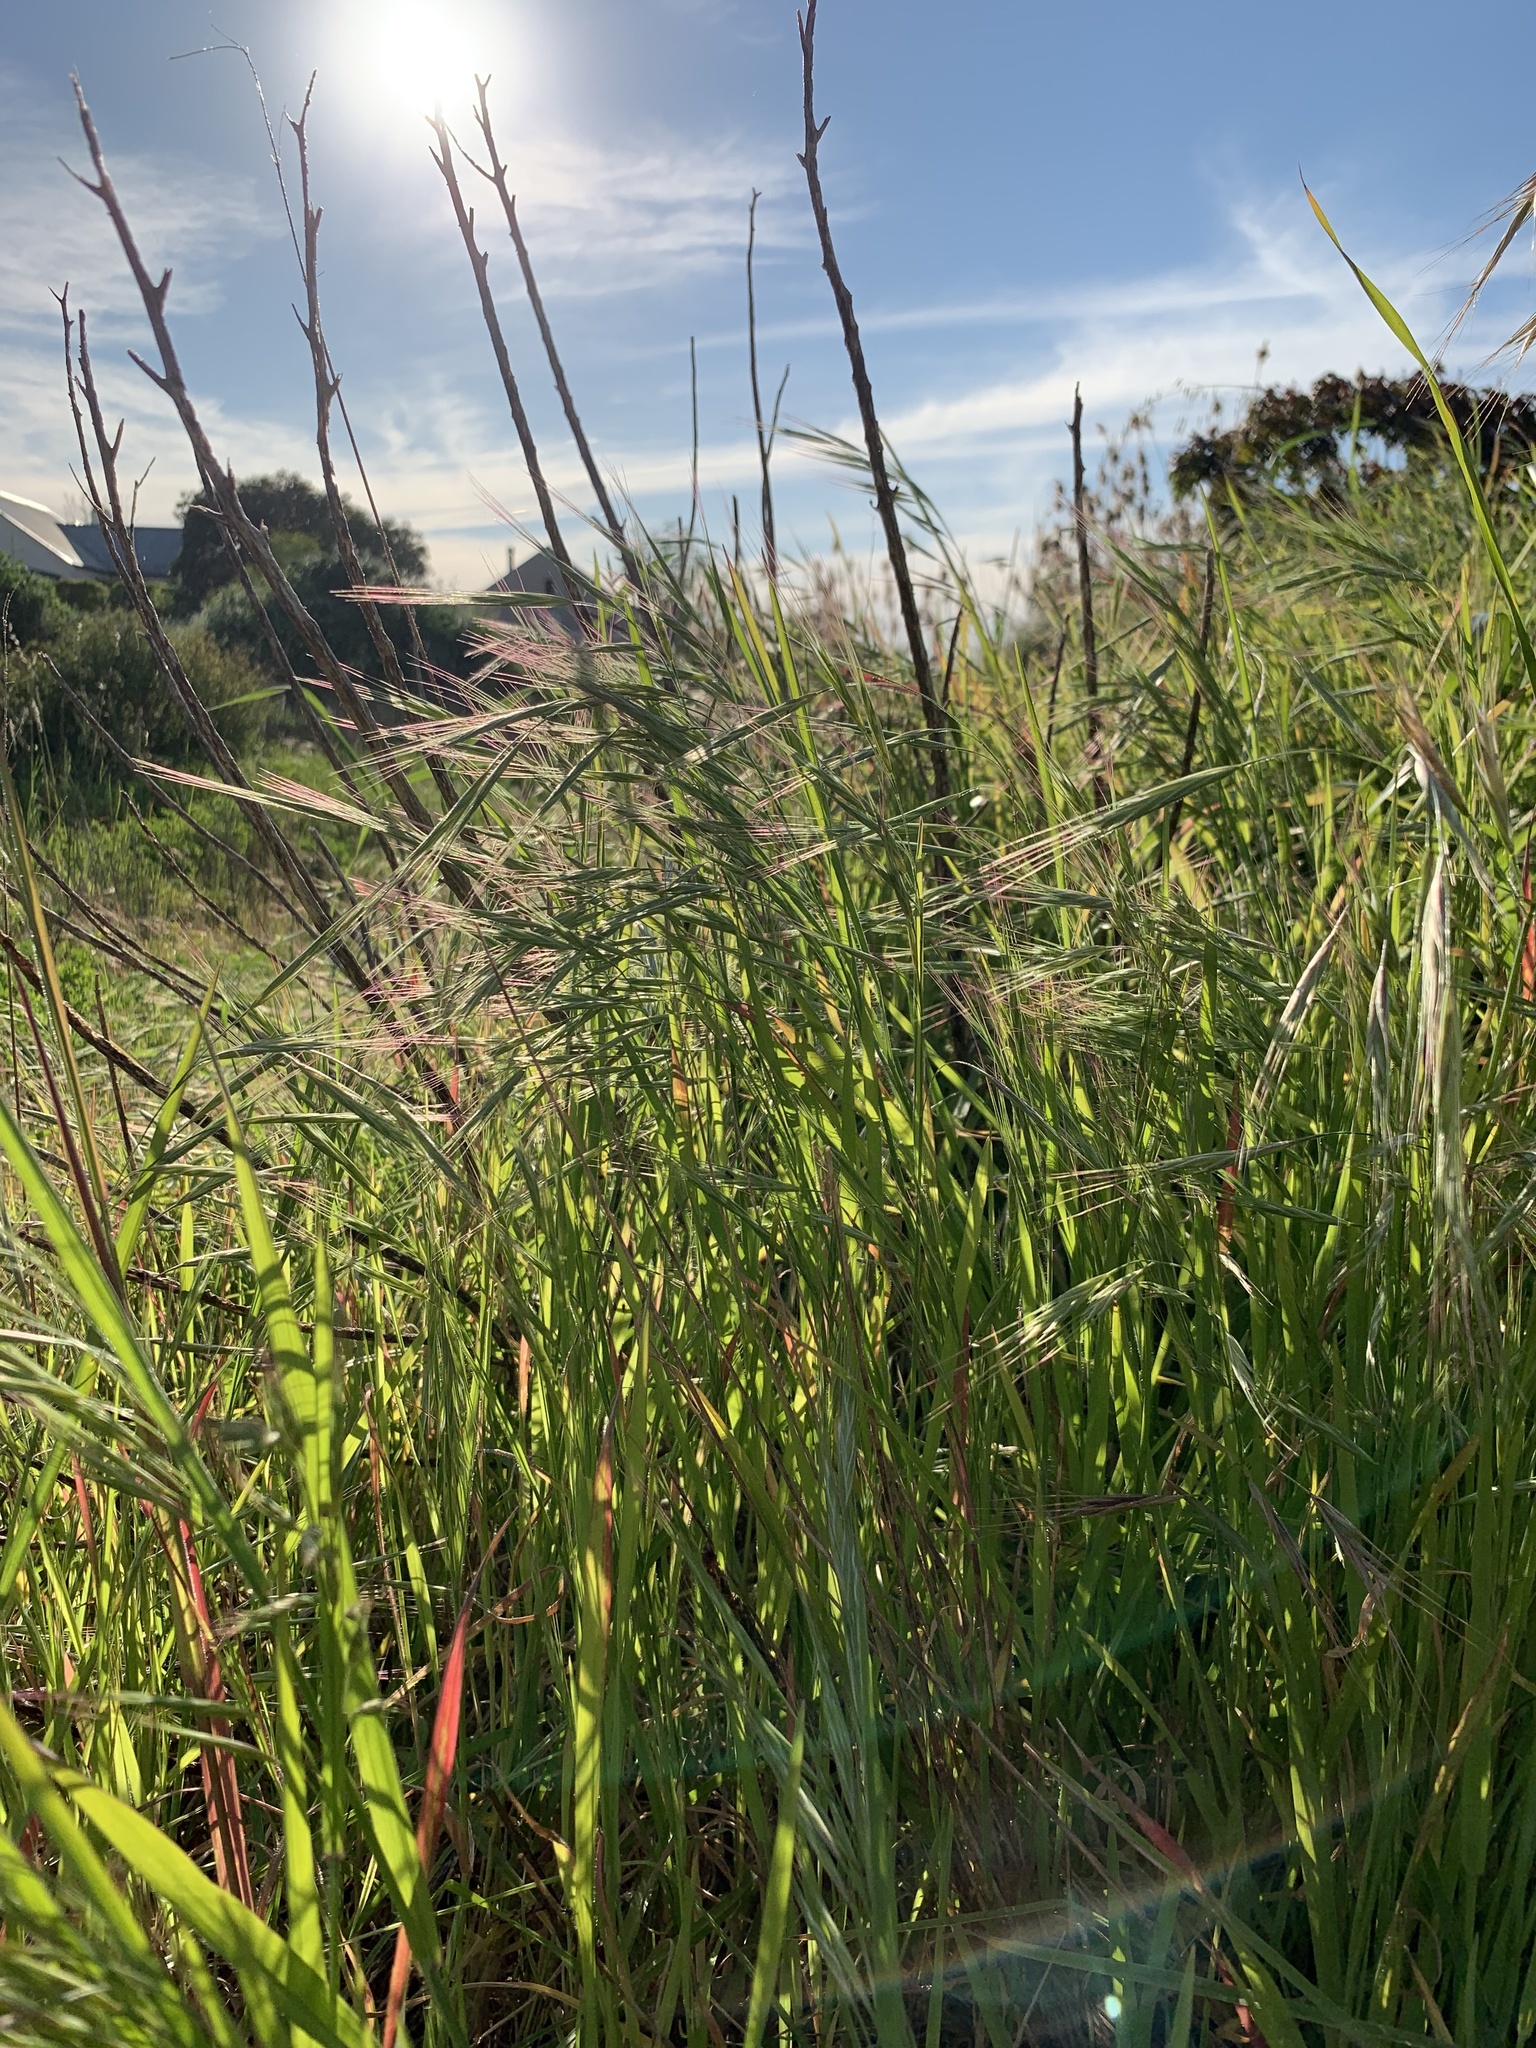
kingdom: Plantae
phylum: Tracheophyta
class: Liliopsida
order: Poales
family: Poaceae
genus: Bromus
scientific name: Bromus diandrus
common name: Ripgut brome
